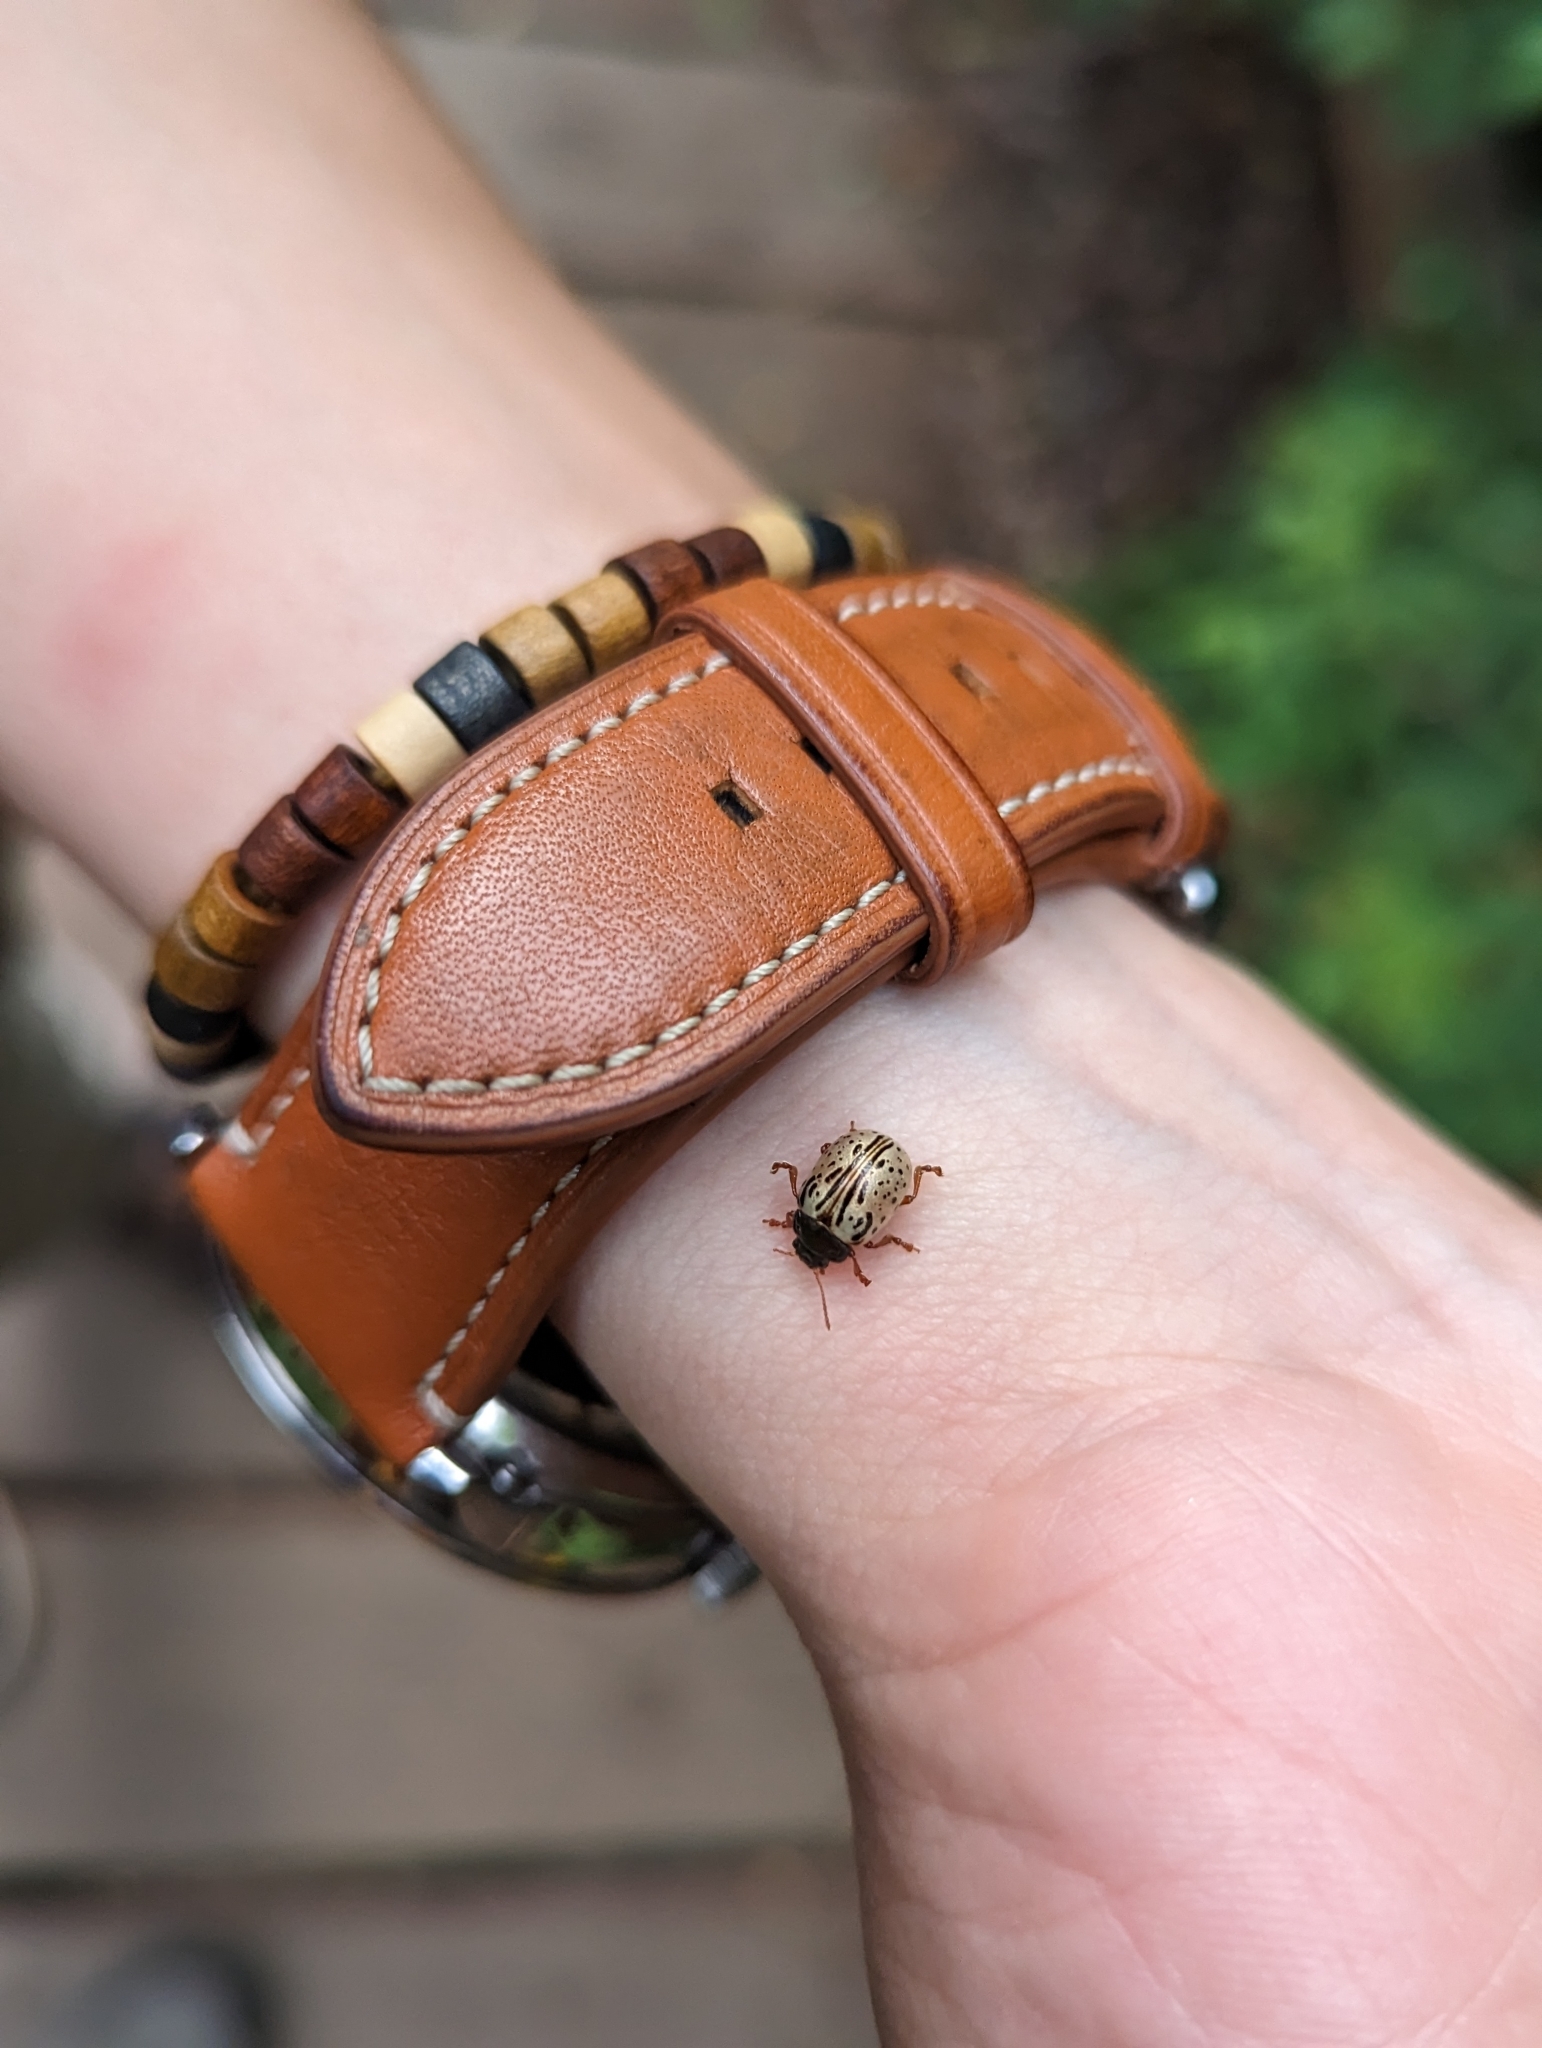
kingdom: Animalia
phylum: Arthropoda
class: Insecta
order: Coleoptera
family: Chrysomelidae
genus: Calligrapha
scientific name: Calligrapha multipunctata
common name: Common willow calligrapher beetle
